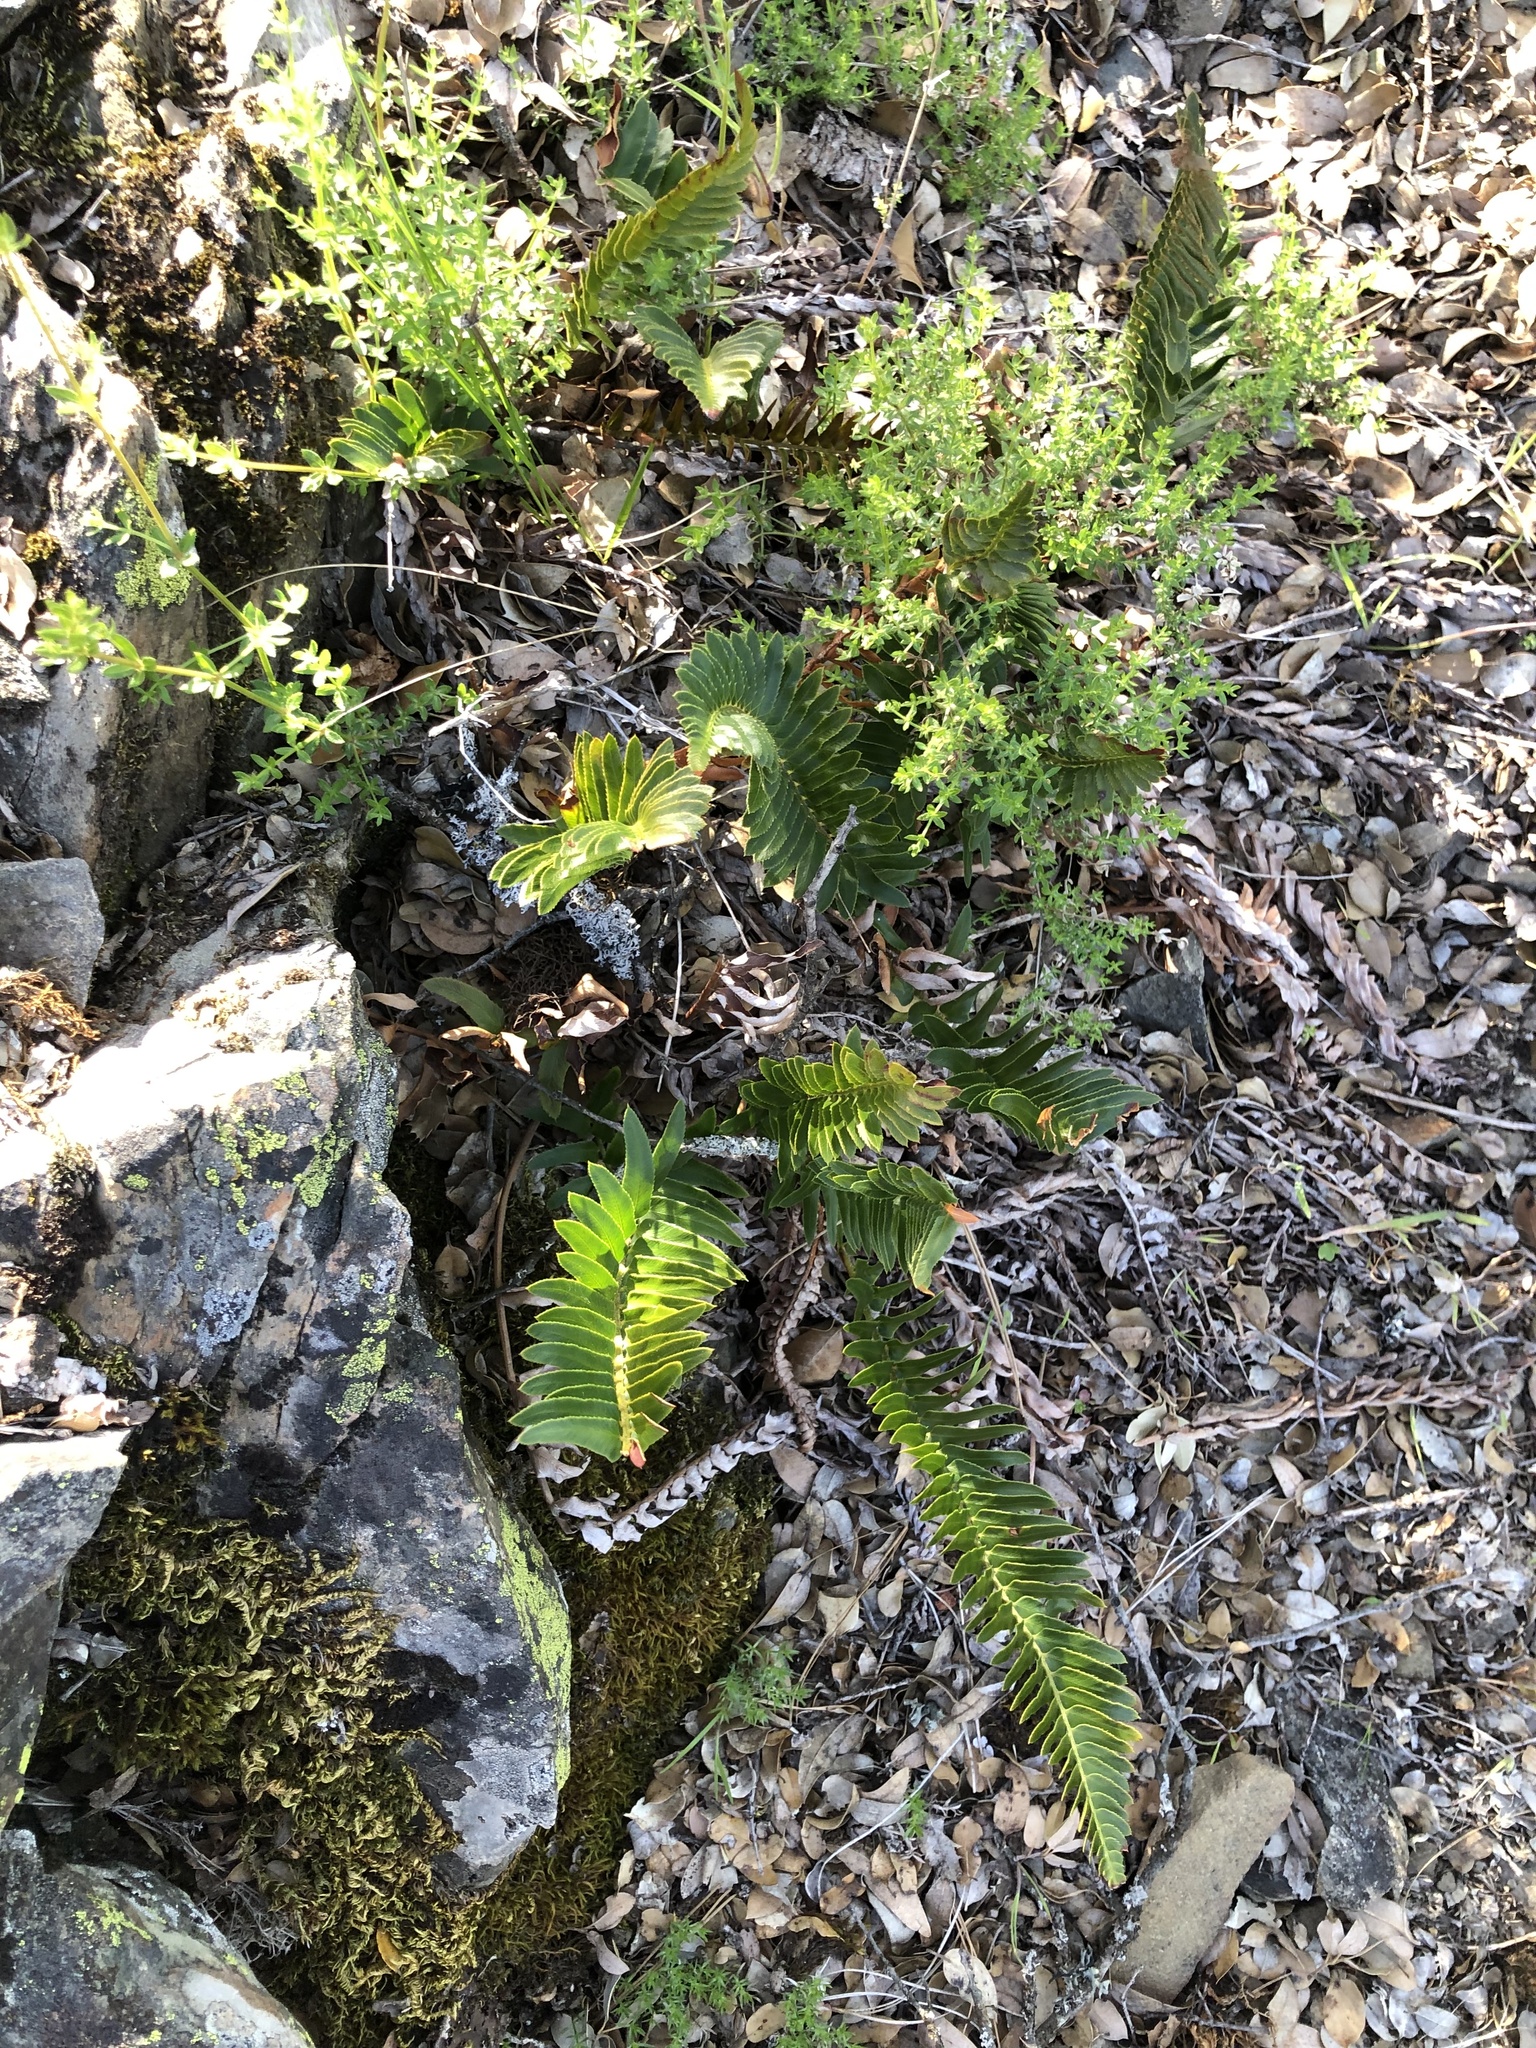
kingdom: Plantae
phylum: Tracheophyta
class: Polypodiopsida
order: Polypodiales
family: Dryopteridaceae
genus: Polystichum
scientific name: Polystichum imbricans
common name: Dwarf western sword fern
